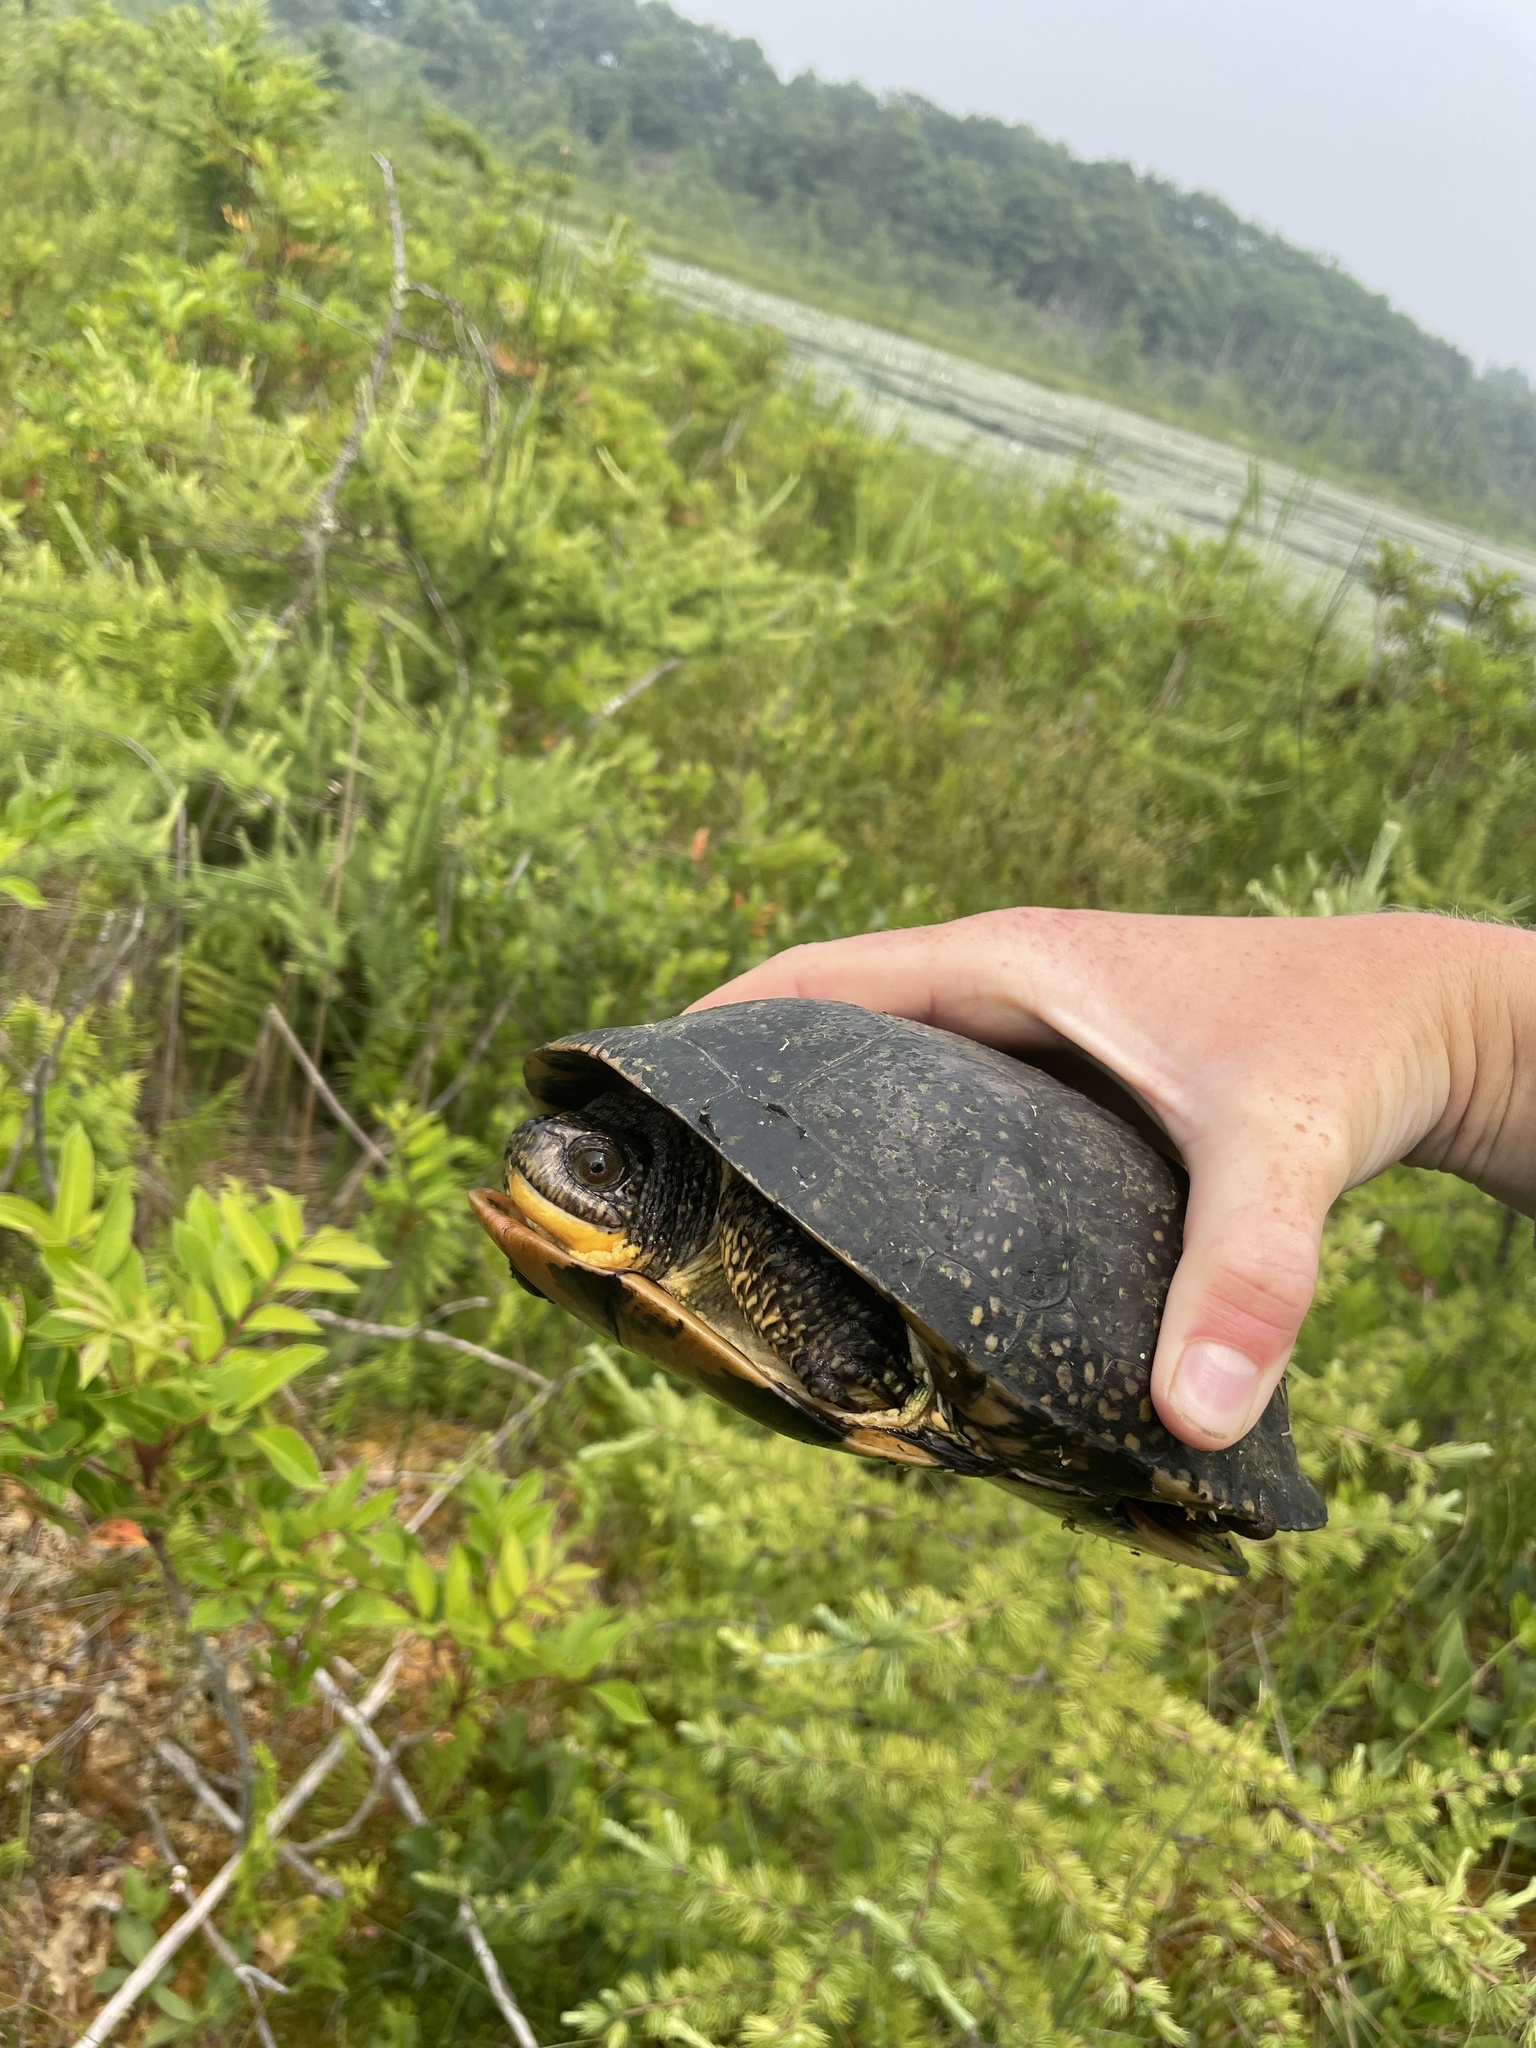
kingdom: Animalia
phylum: Chordata
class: Testudines
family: Emydidae
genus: Emys
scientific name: Emys blandingii
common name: Blanding's turtle
